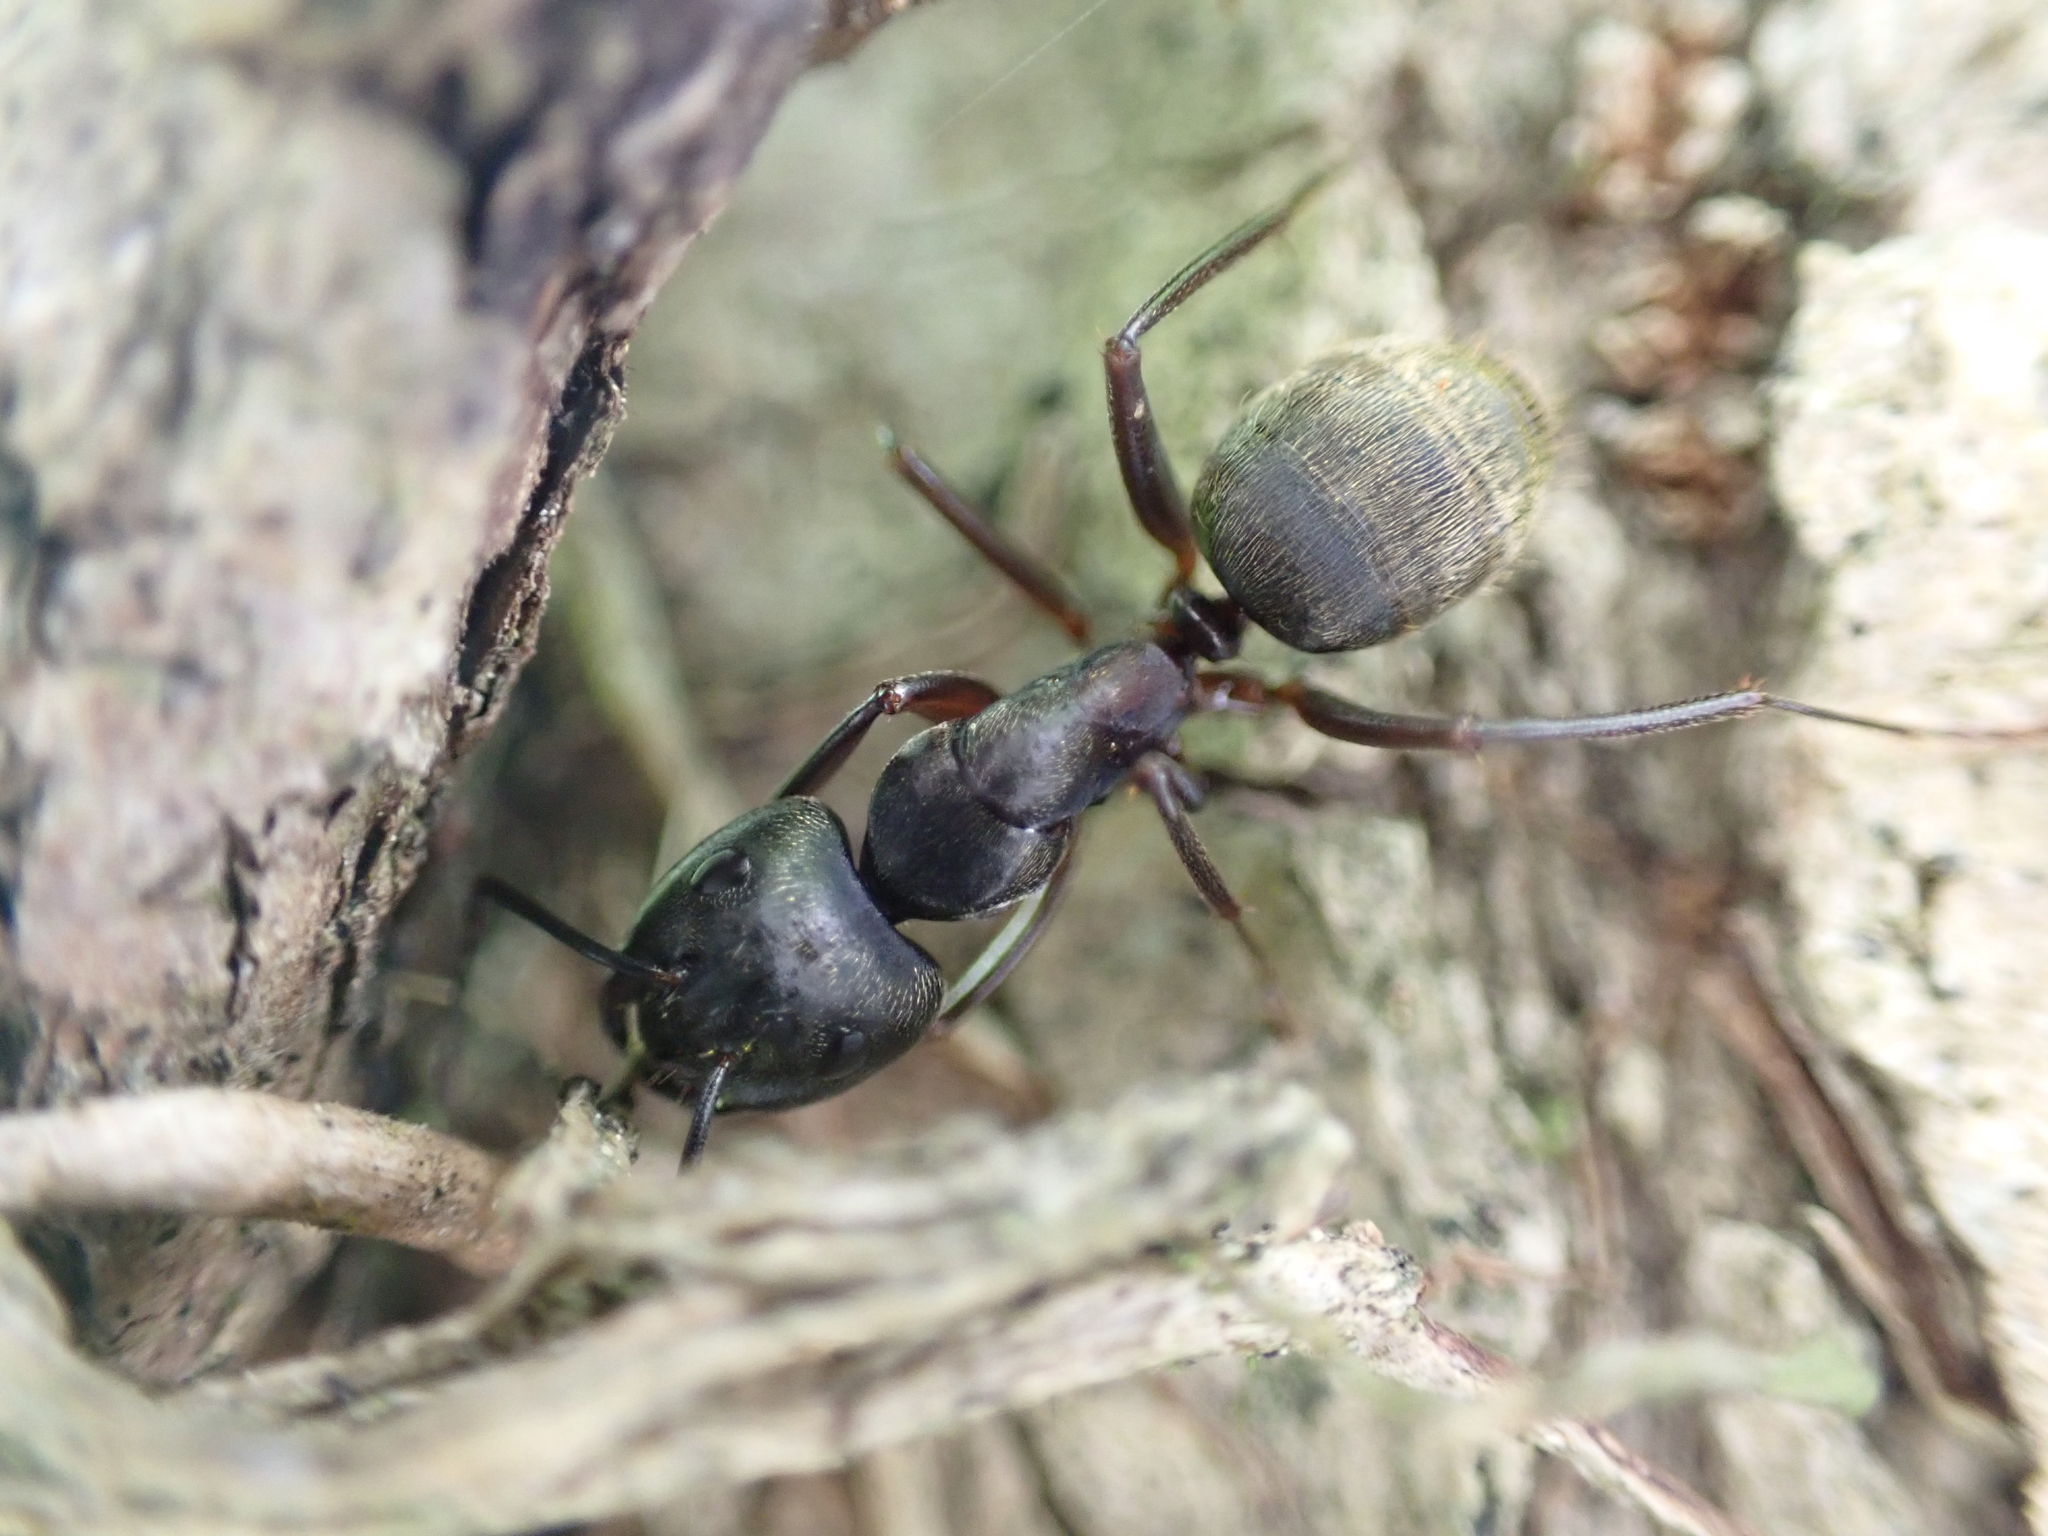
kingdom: Animalia
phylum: Arthropoda
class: Insecta
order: Hymenoptera
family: Formicidae
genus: Camponotus
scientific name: Camponotus pennsylvanicus
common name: Black carpenter ant
